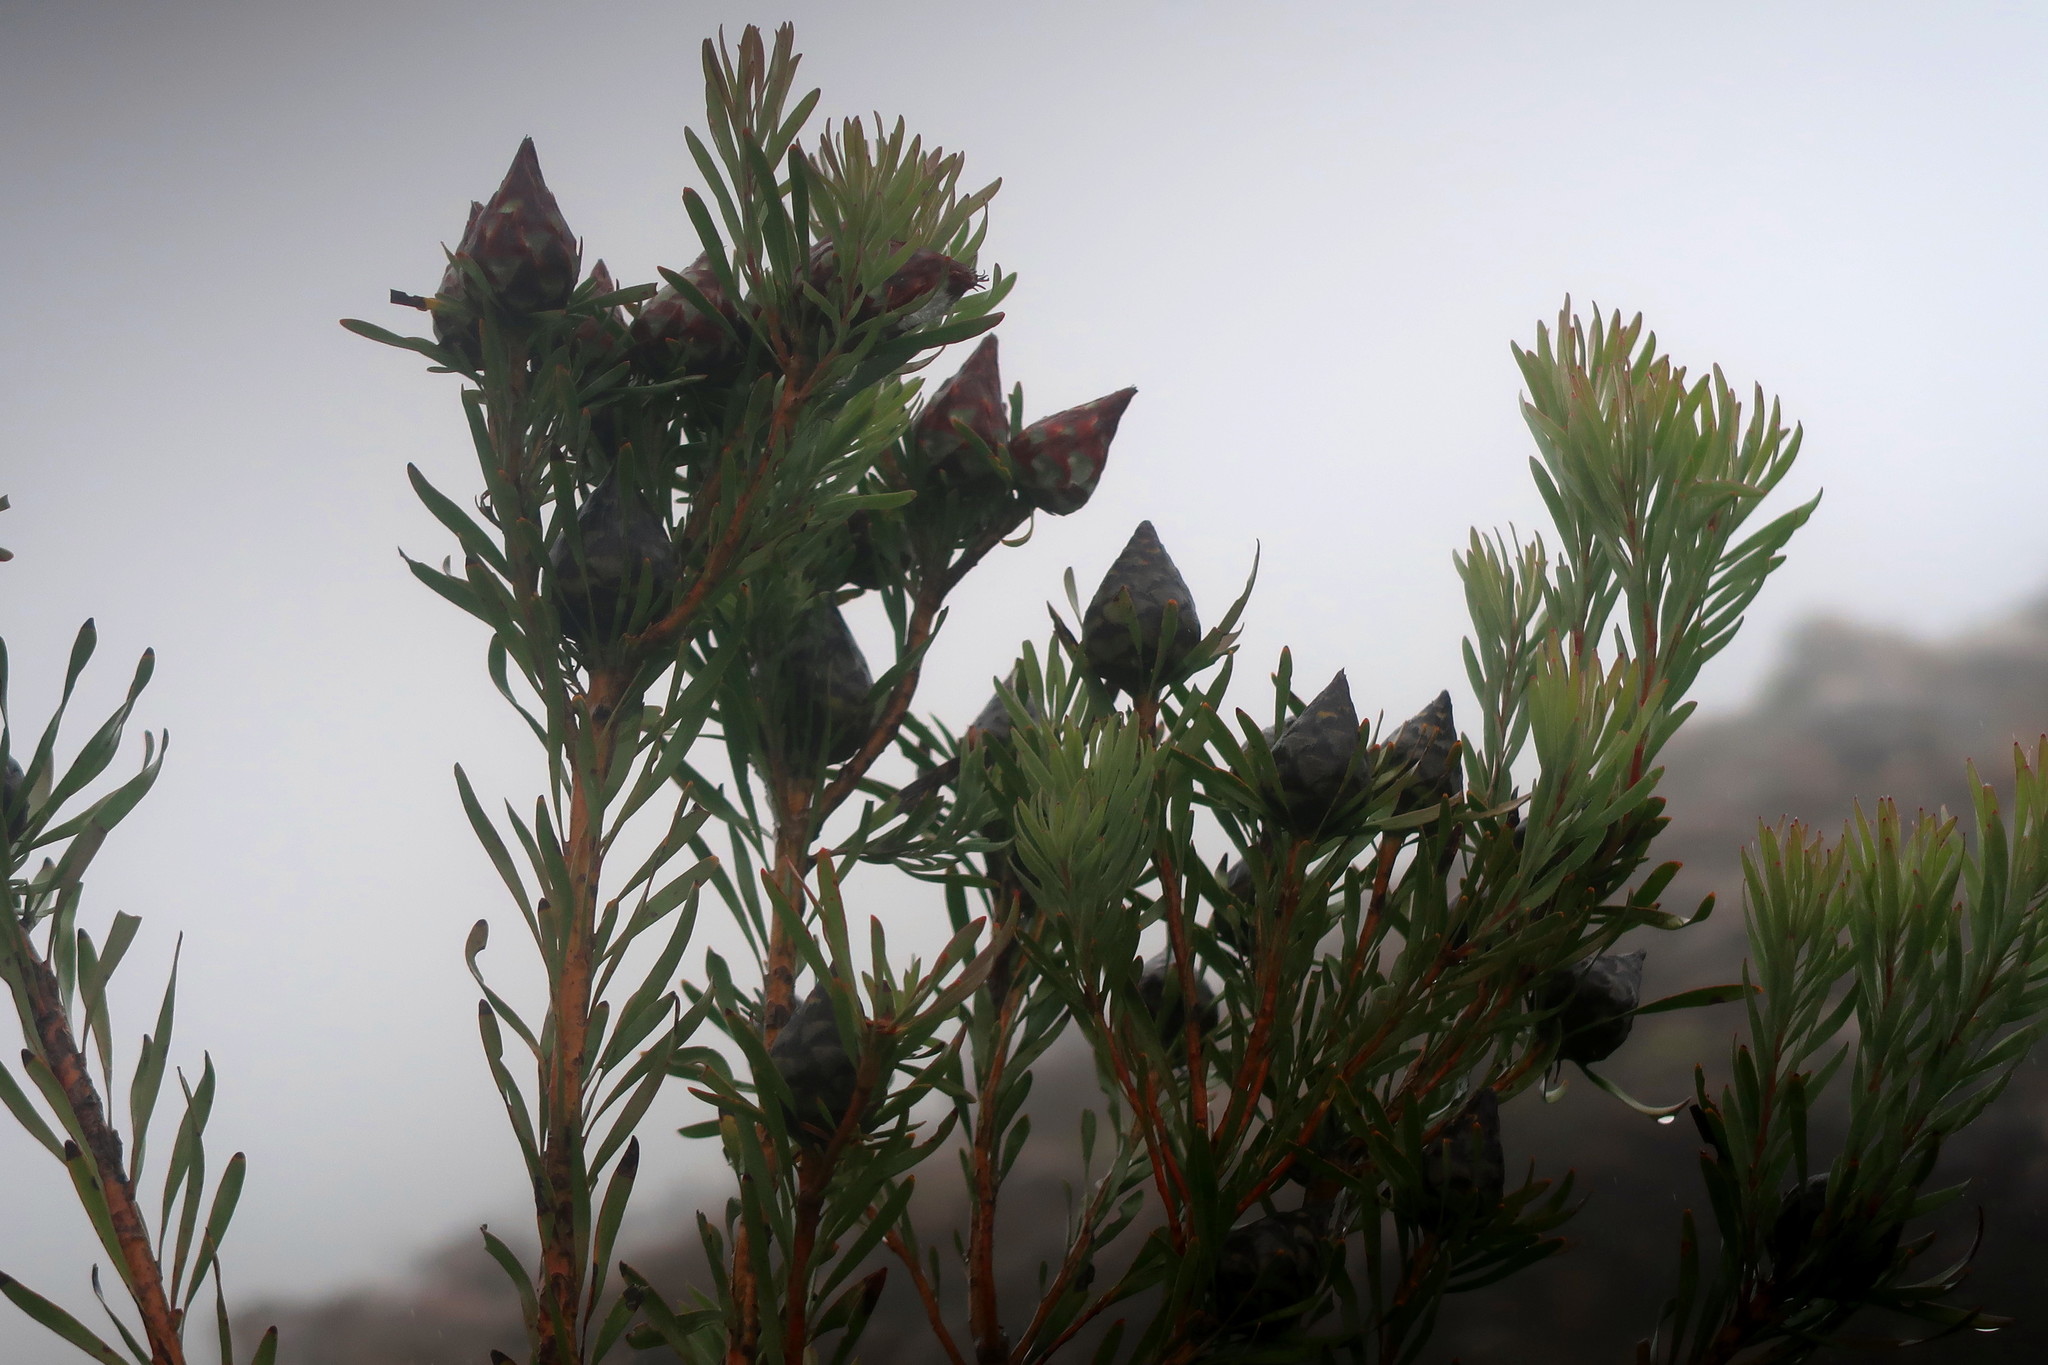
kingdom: Plantae
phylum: Tracheophyta
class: Magnoliopsida
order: Proteales
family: Proteaceae
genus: Leucadendron
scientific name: Leucadendron rubrum
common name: Spinning top
